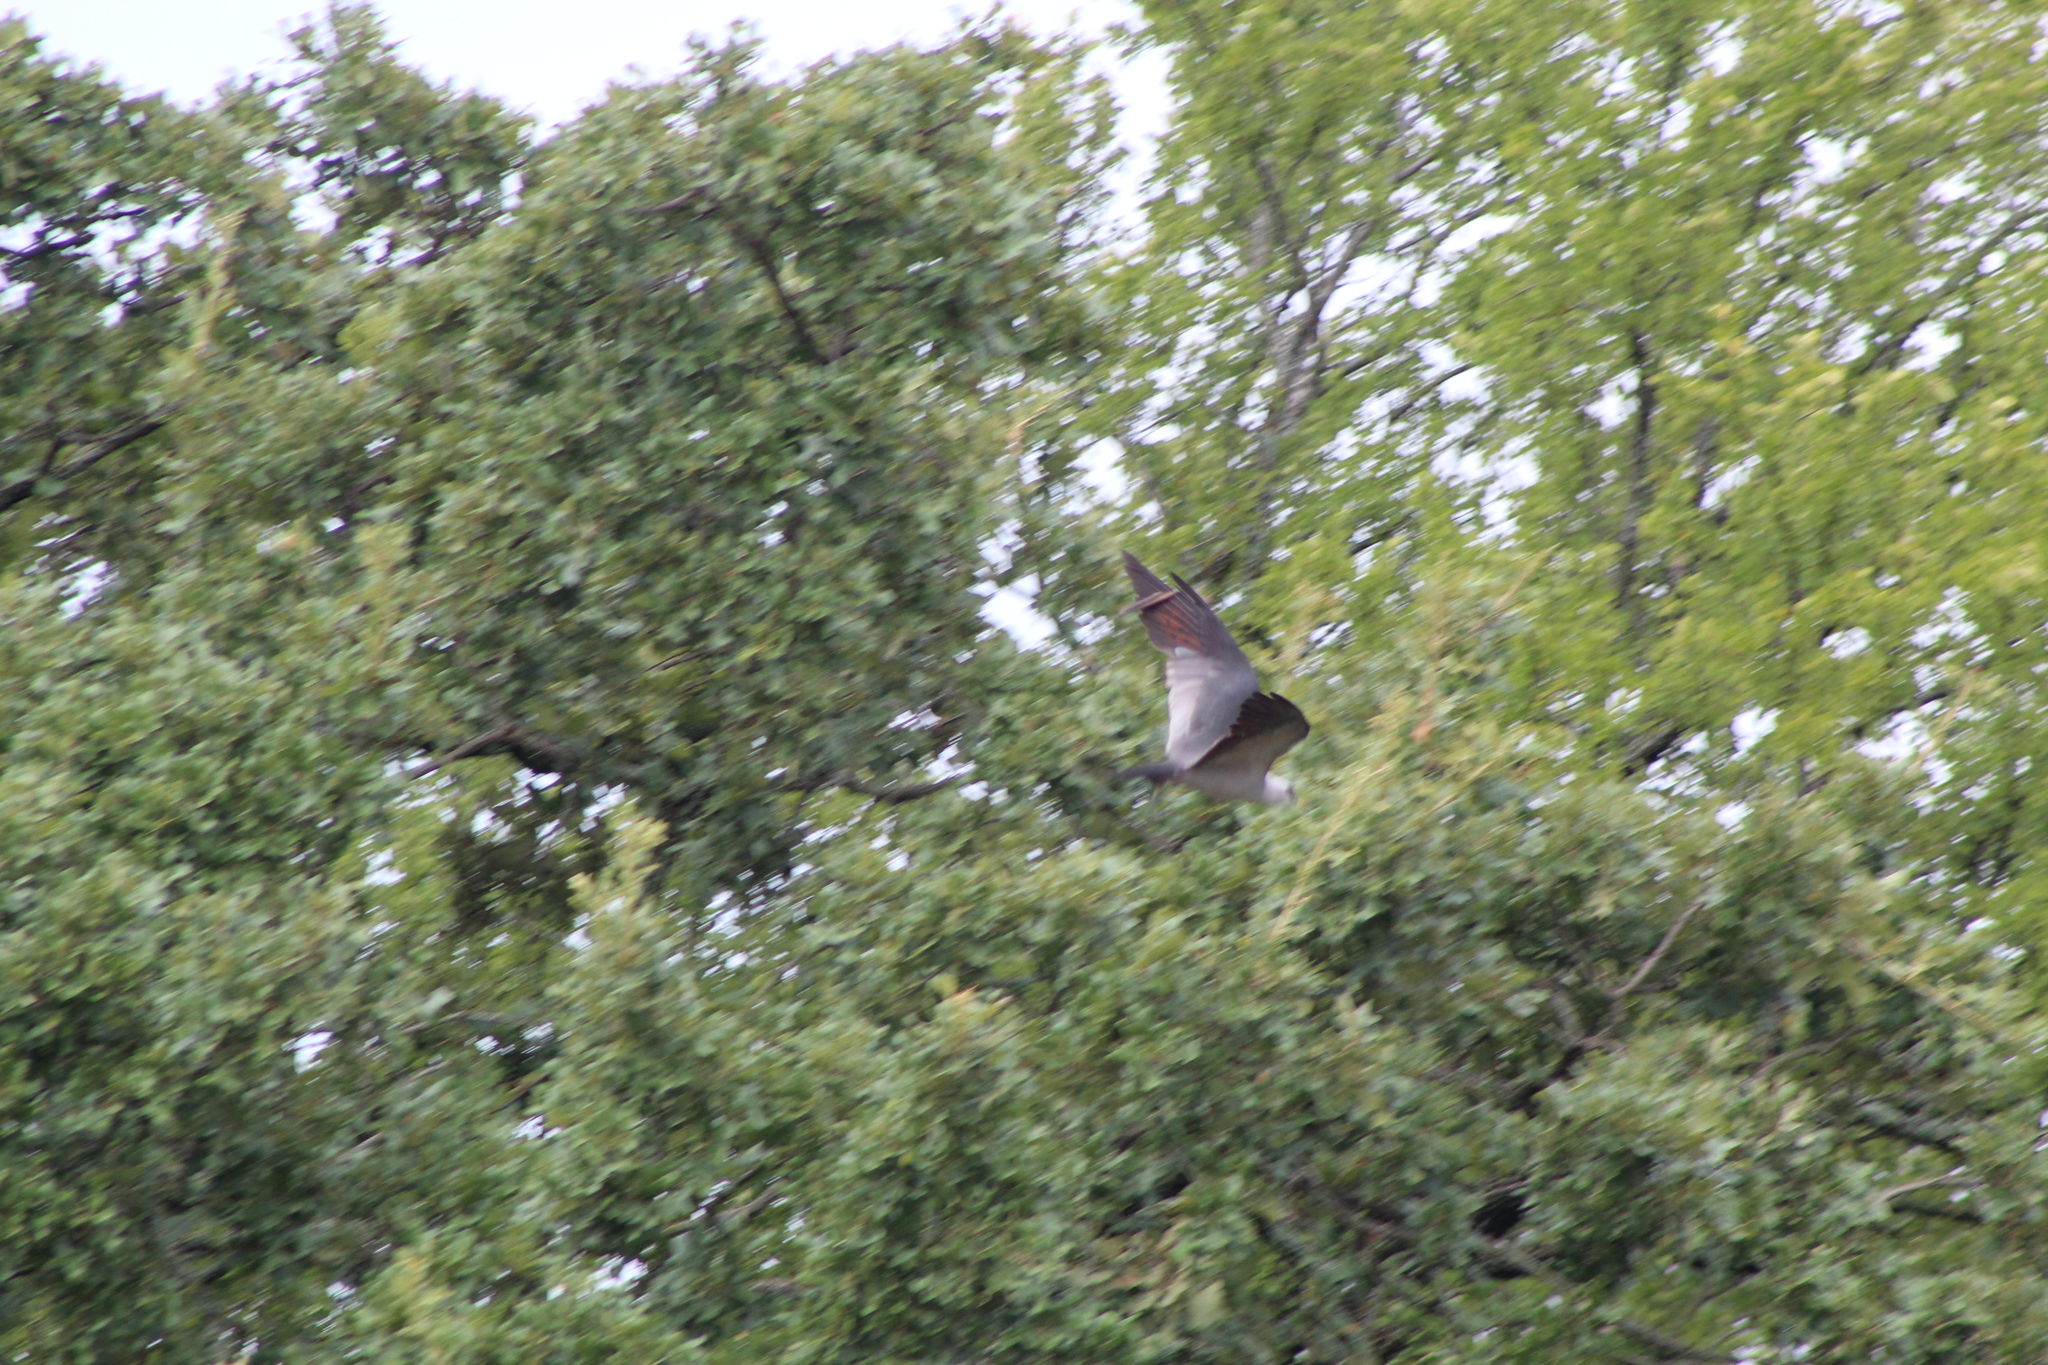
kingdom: Animalia
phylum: Chordata
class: Aves
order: Accipitriformes
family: Accipitridae
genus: Ictinia
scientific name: Ictinia mississippiensis
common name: Mississippi kite
